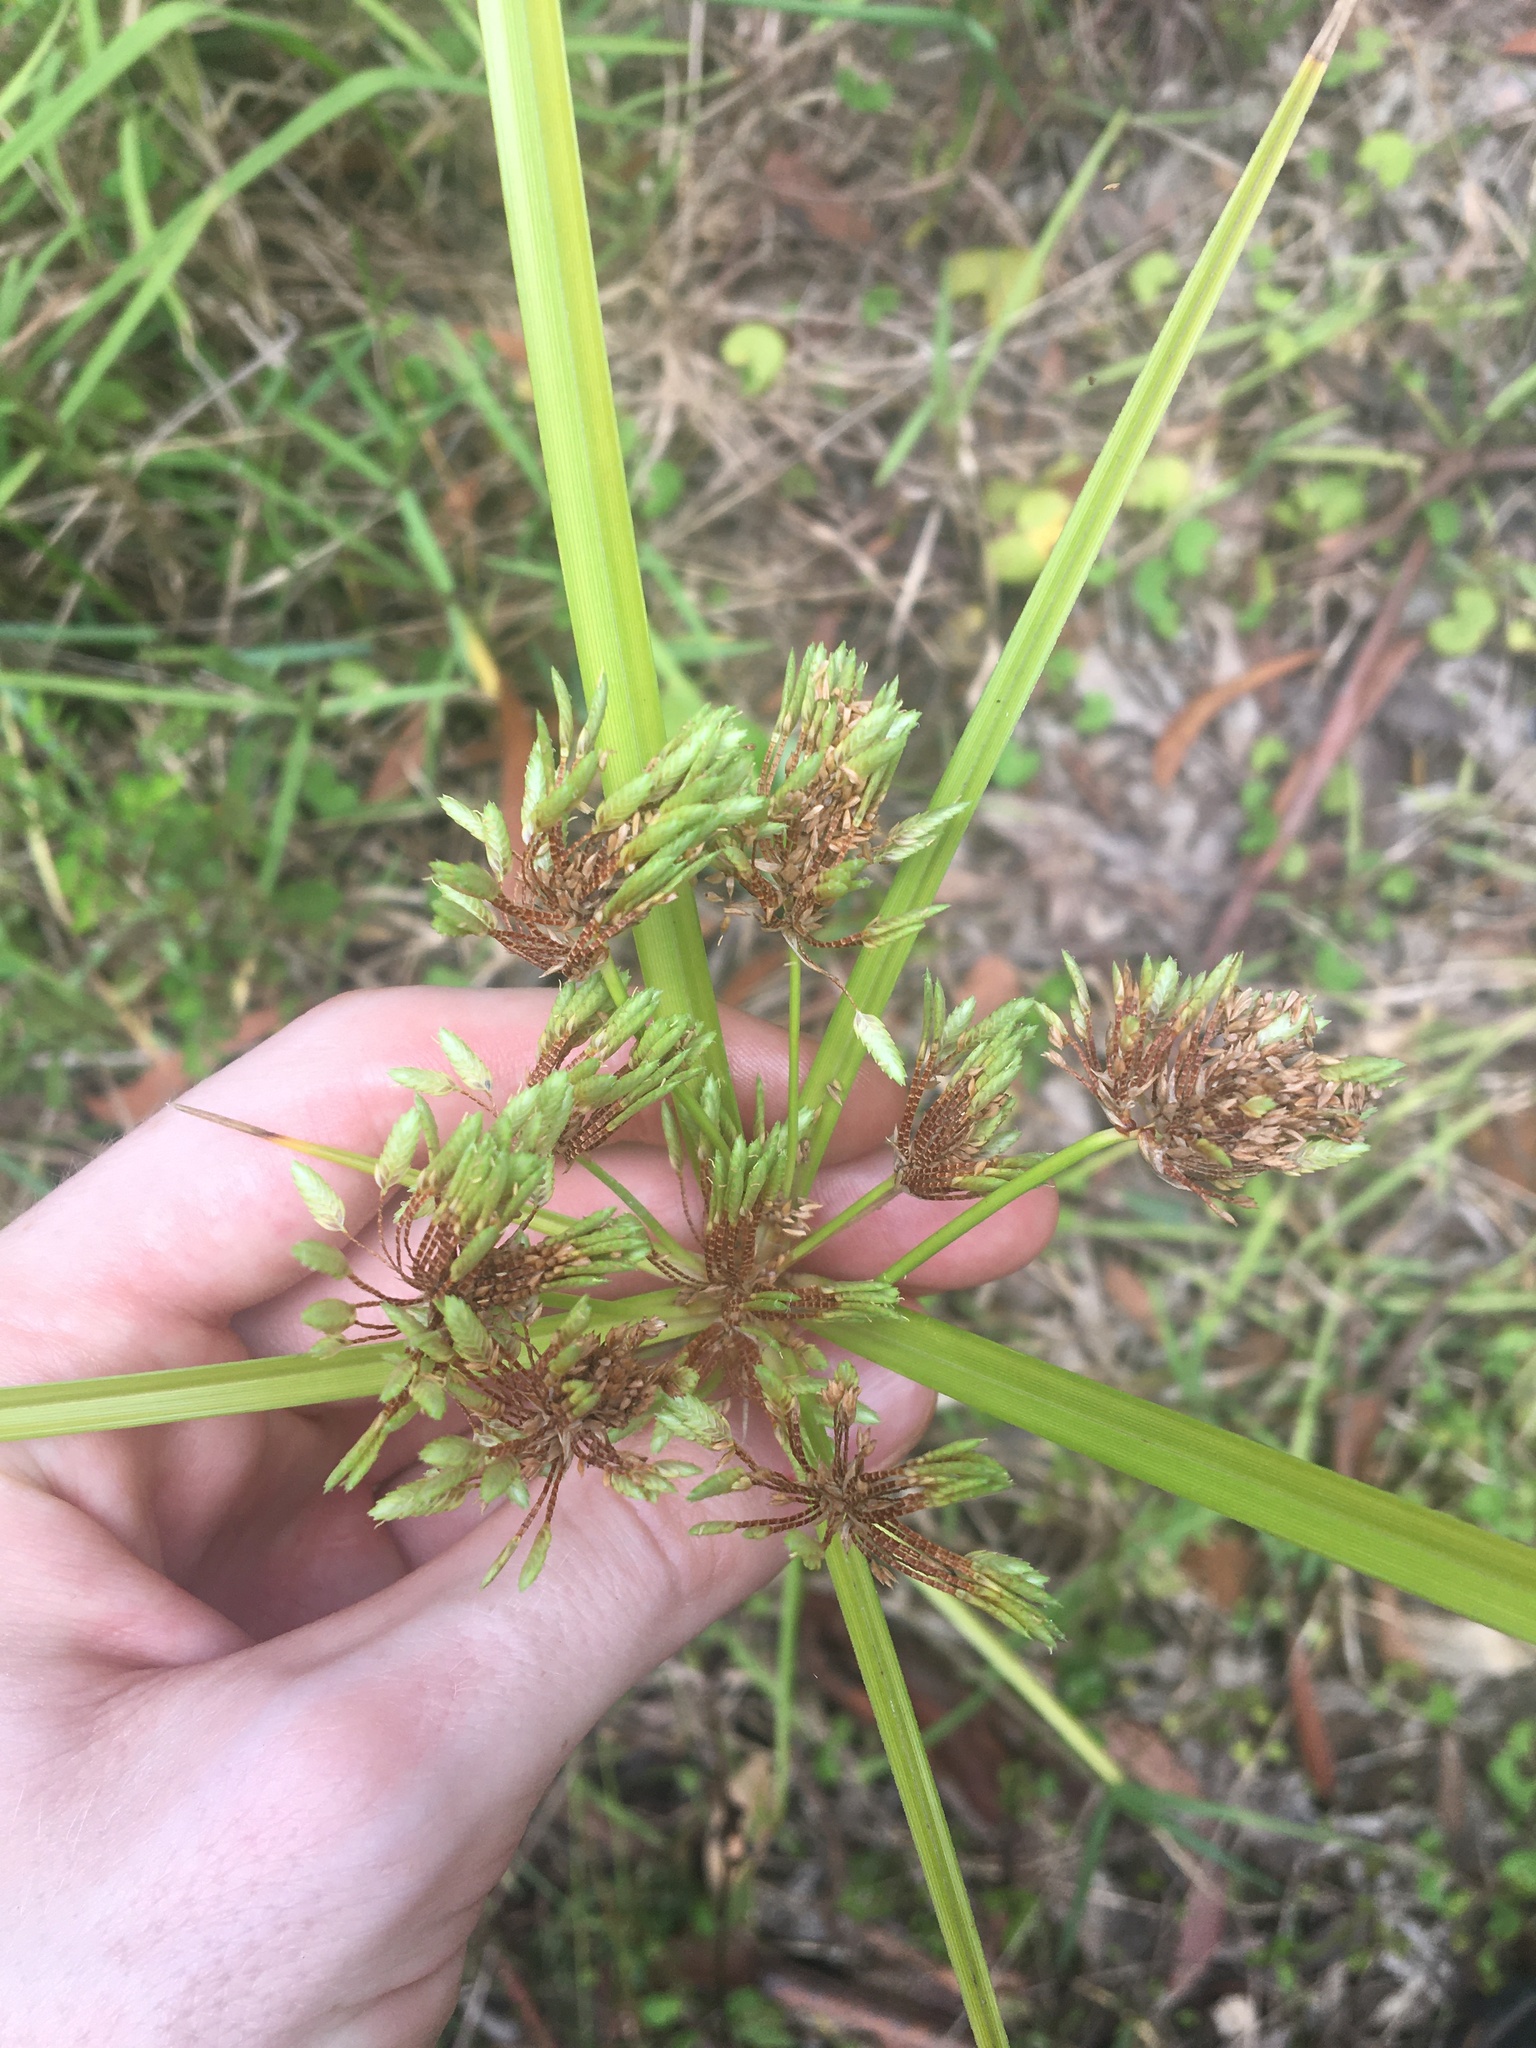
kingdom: Plantae
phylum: Tracheophyta
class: Liliopsida
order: Poales
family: Cyperaceae
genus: Cyperus
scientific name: Cyperus eragrostis
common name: Tall flatsedge
